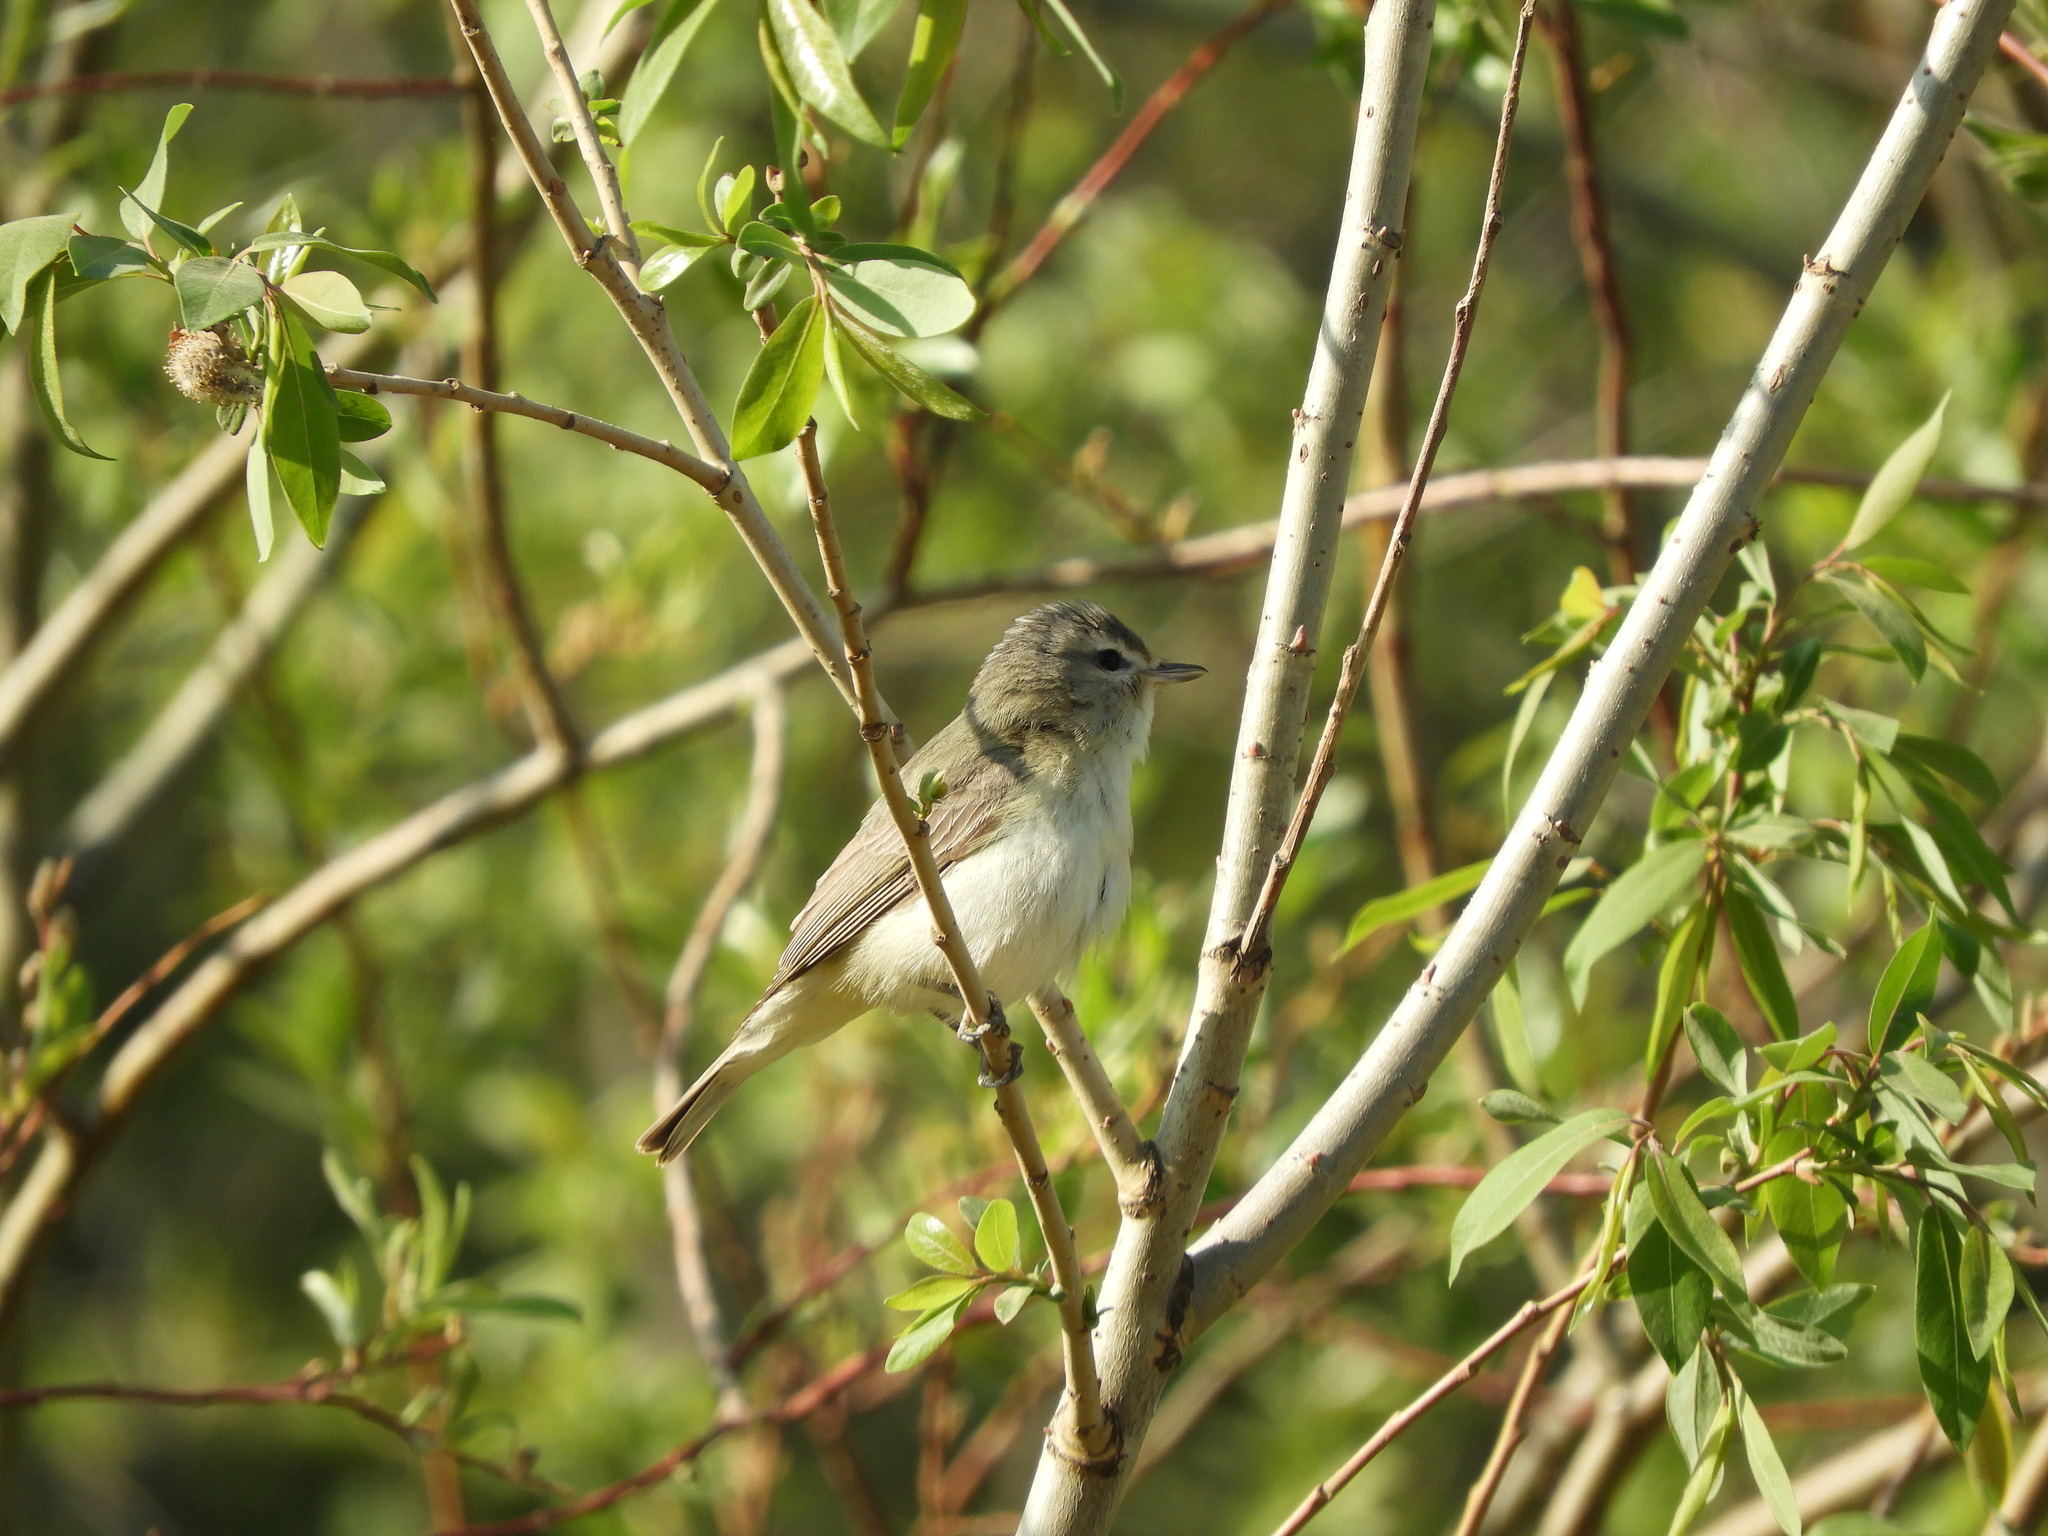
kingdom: Animalia
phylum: Chordata
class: Aves
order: Passeriformes
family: Vireonidae
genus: Vireo
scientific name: Vireo gilvus
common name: Warbling vireo
